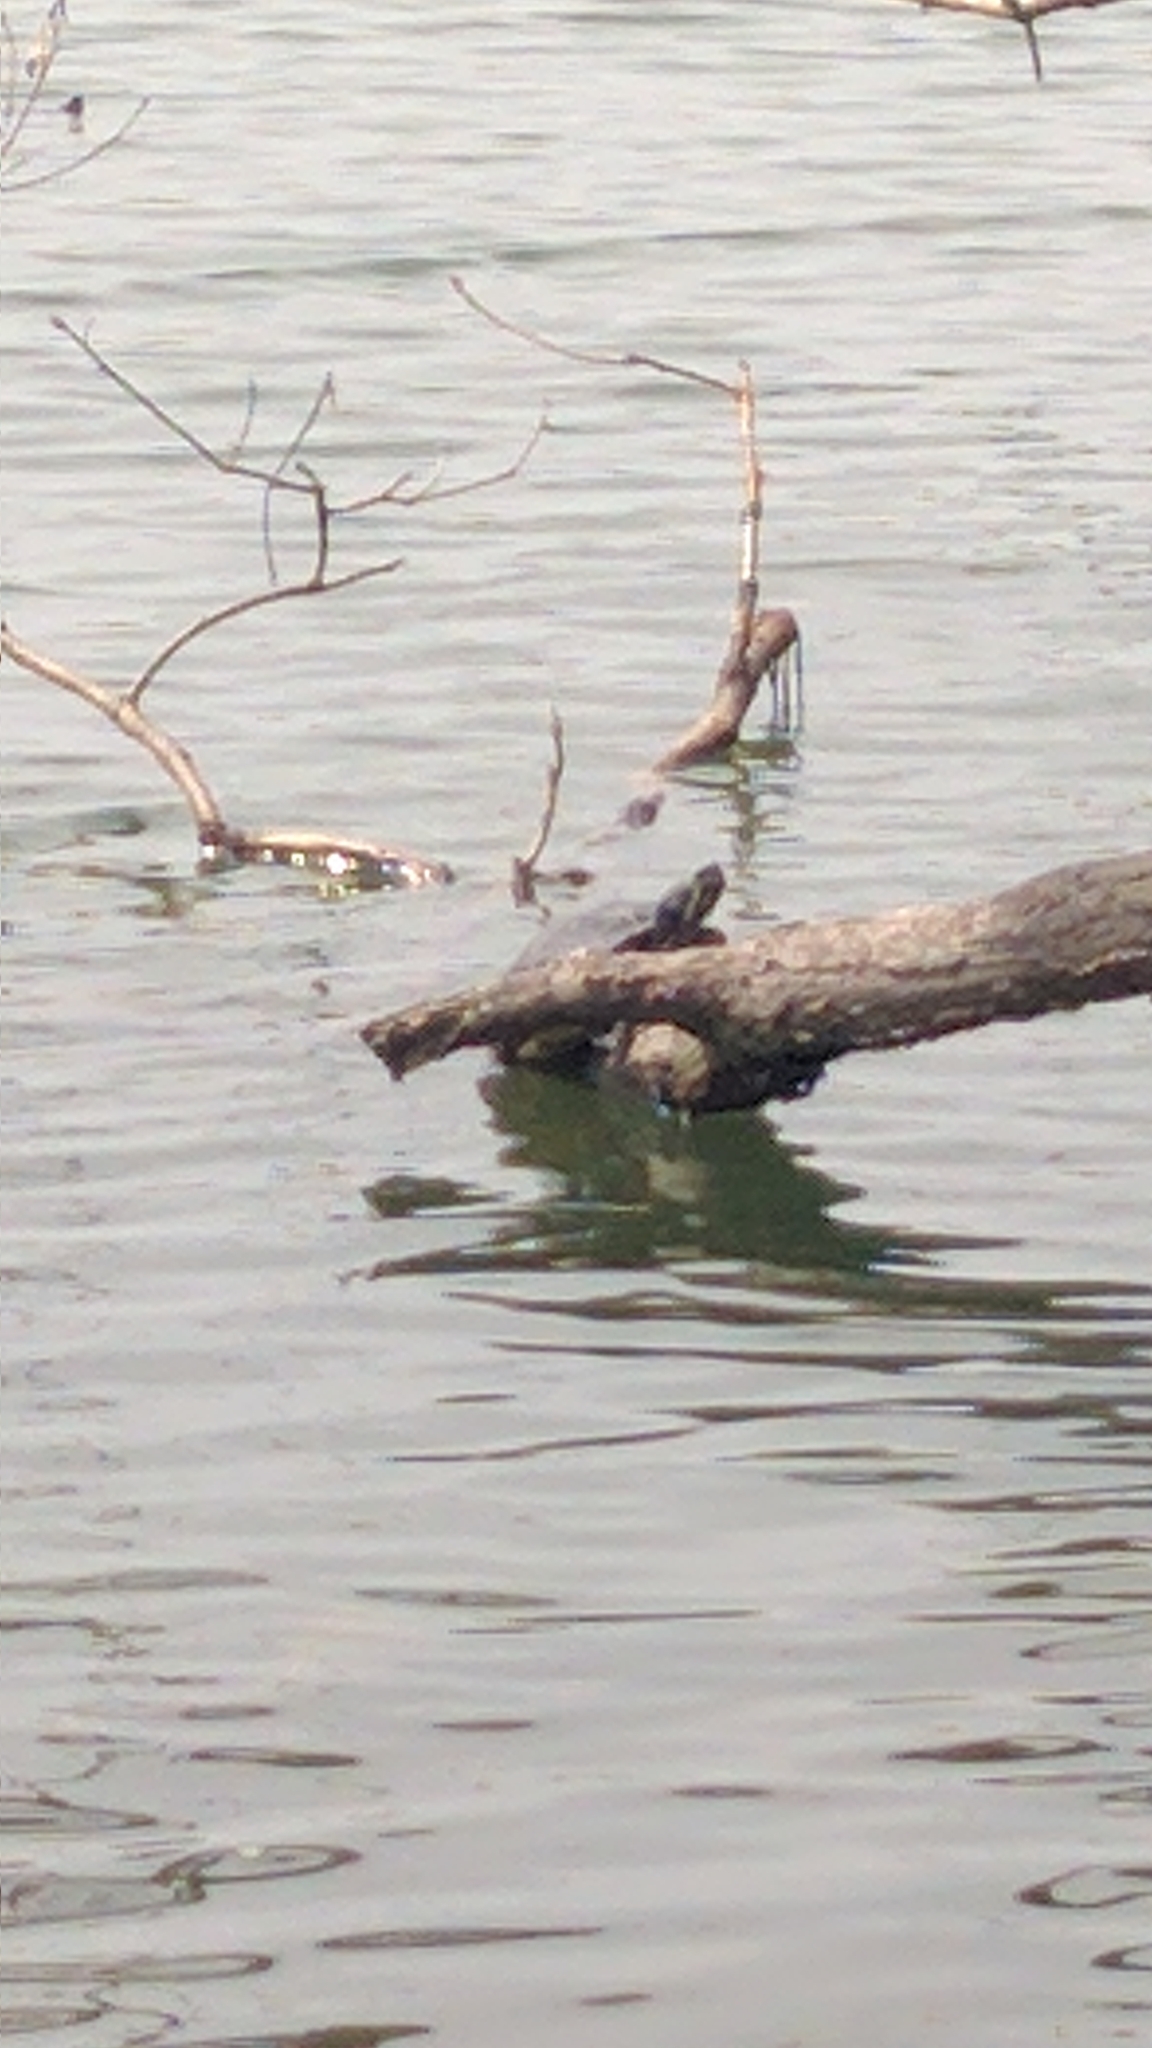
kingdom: Animalia
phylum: Chordata
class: Testudines
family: Emydidae
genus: Trachemys
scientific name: Trachemys scripta
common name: Slider
